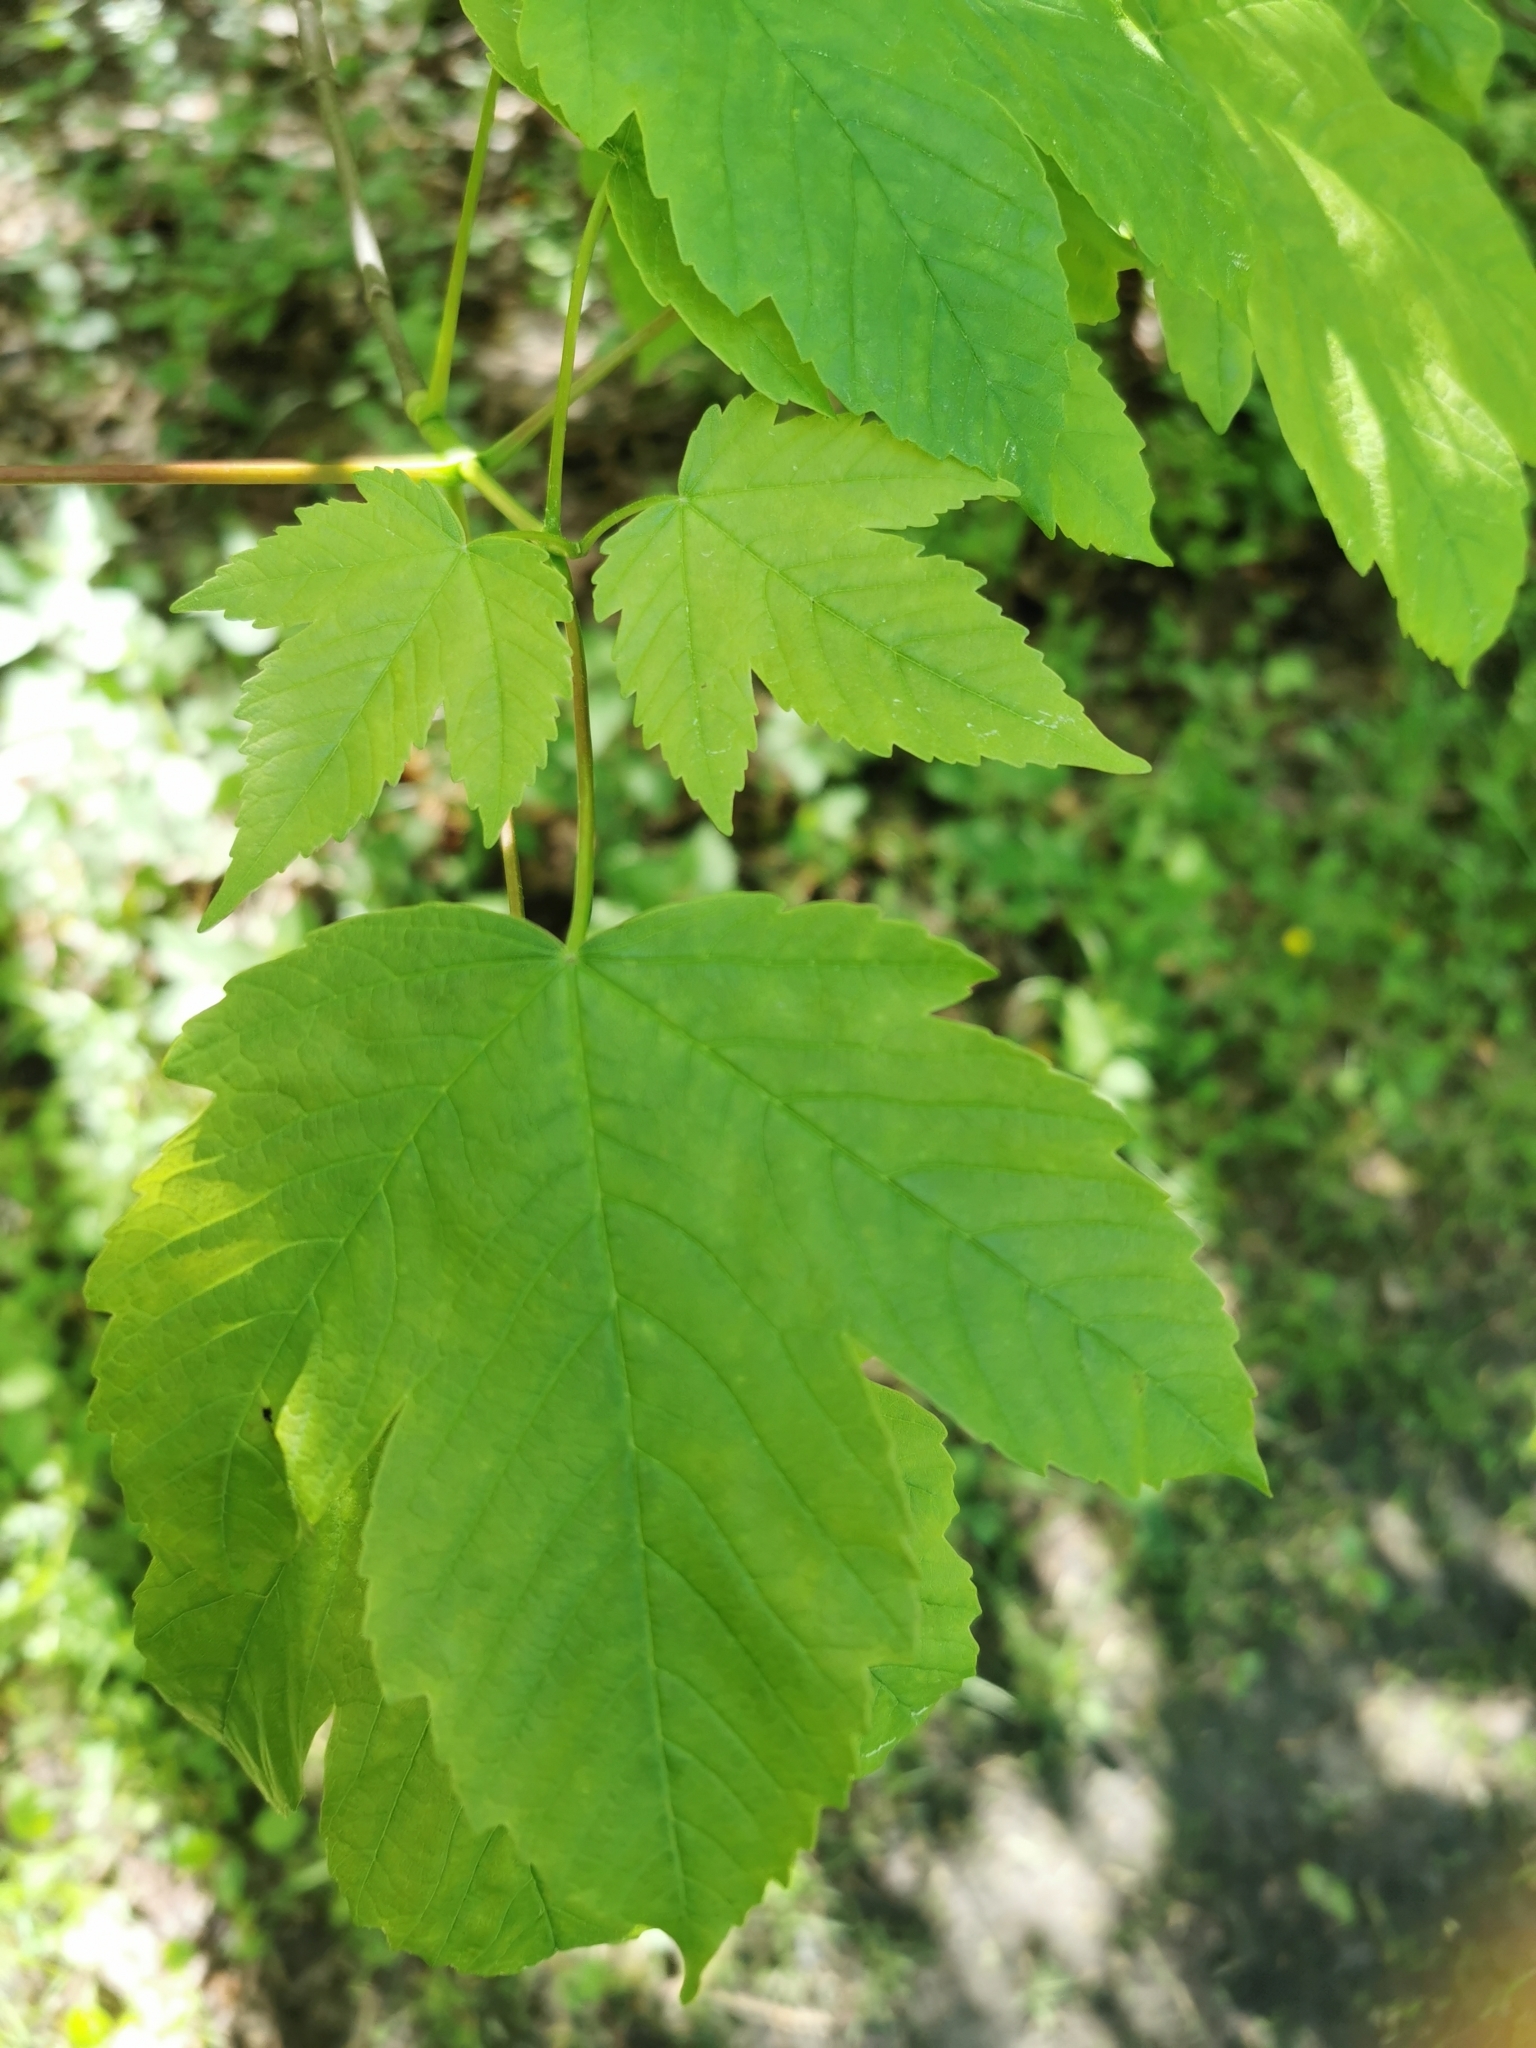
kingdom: Plantae
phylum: Tracheophyta
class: Magnoliopsida
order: Sapindales
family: Sapindaceae
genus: Acer
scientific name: Acer pseudoplatanus
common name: Sycamore
